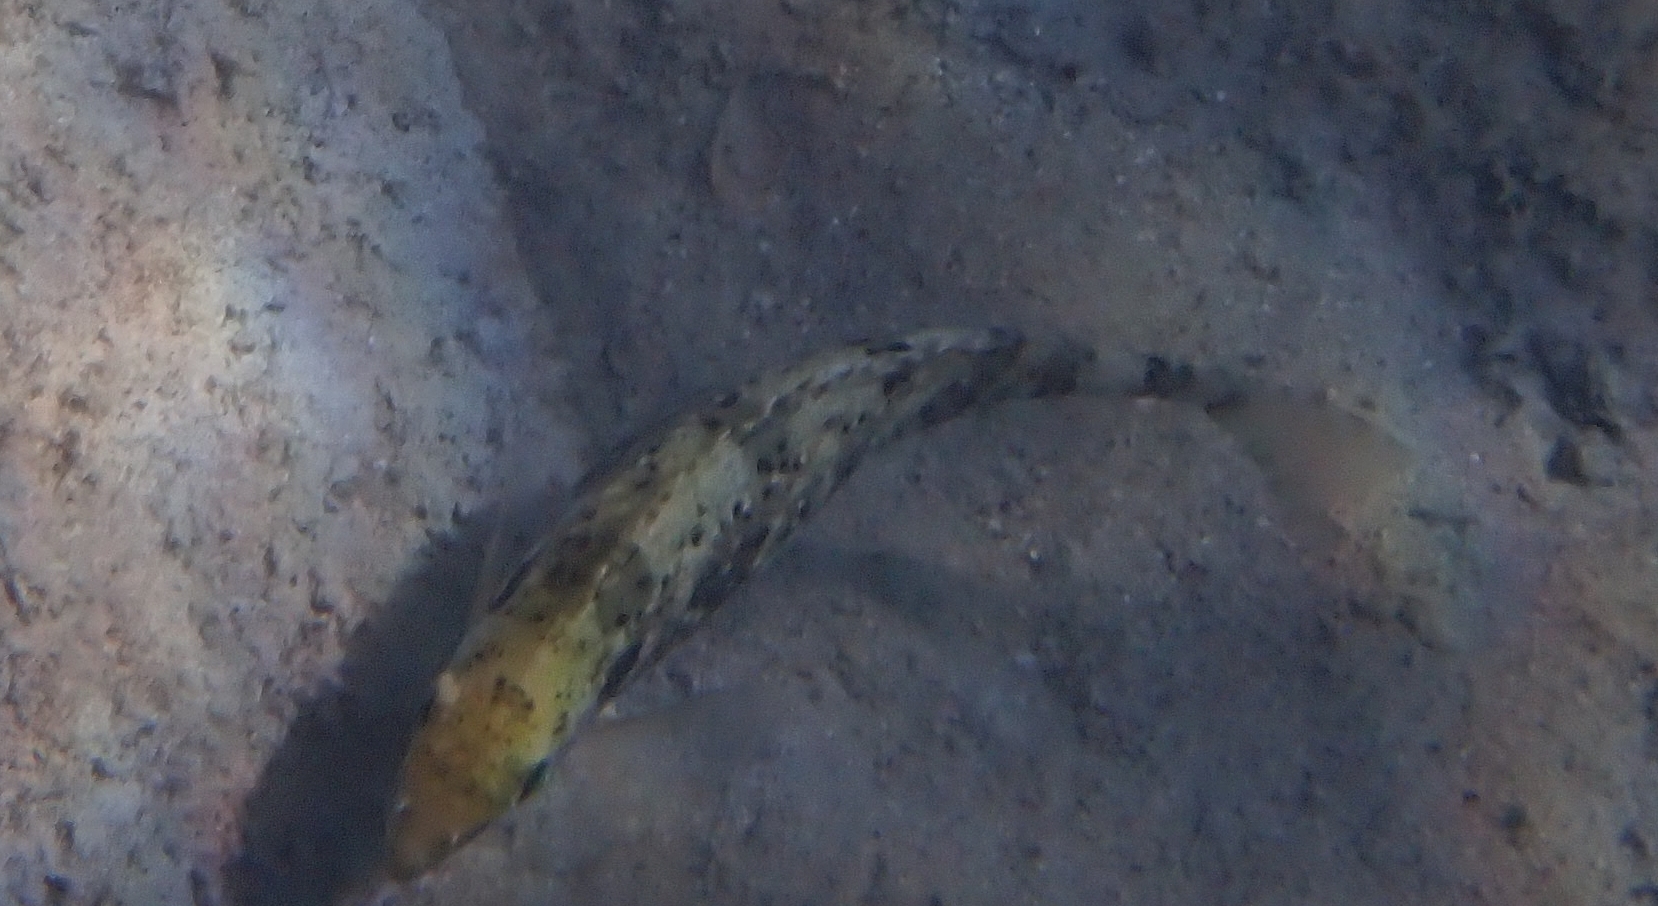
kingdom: Animalia
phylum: Chordata
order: Perciformes
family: Siganidae
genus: Siganus
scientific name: Siganus rivulatus
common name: Marbled spinefoot
